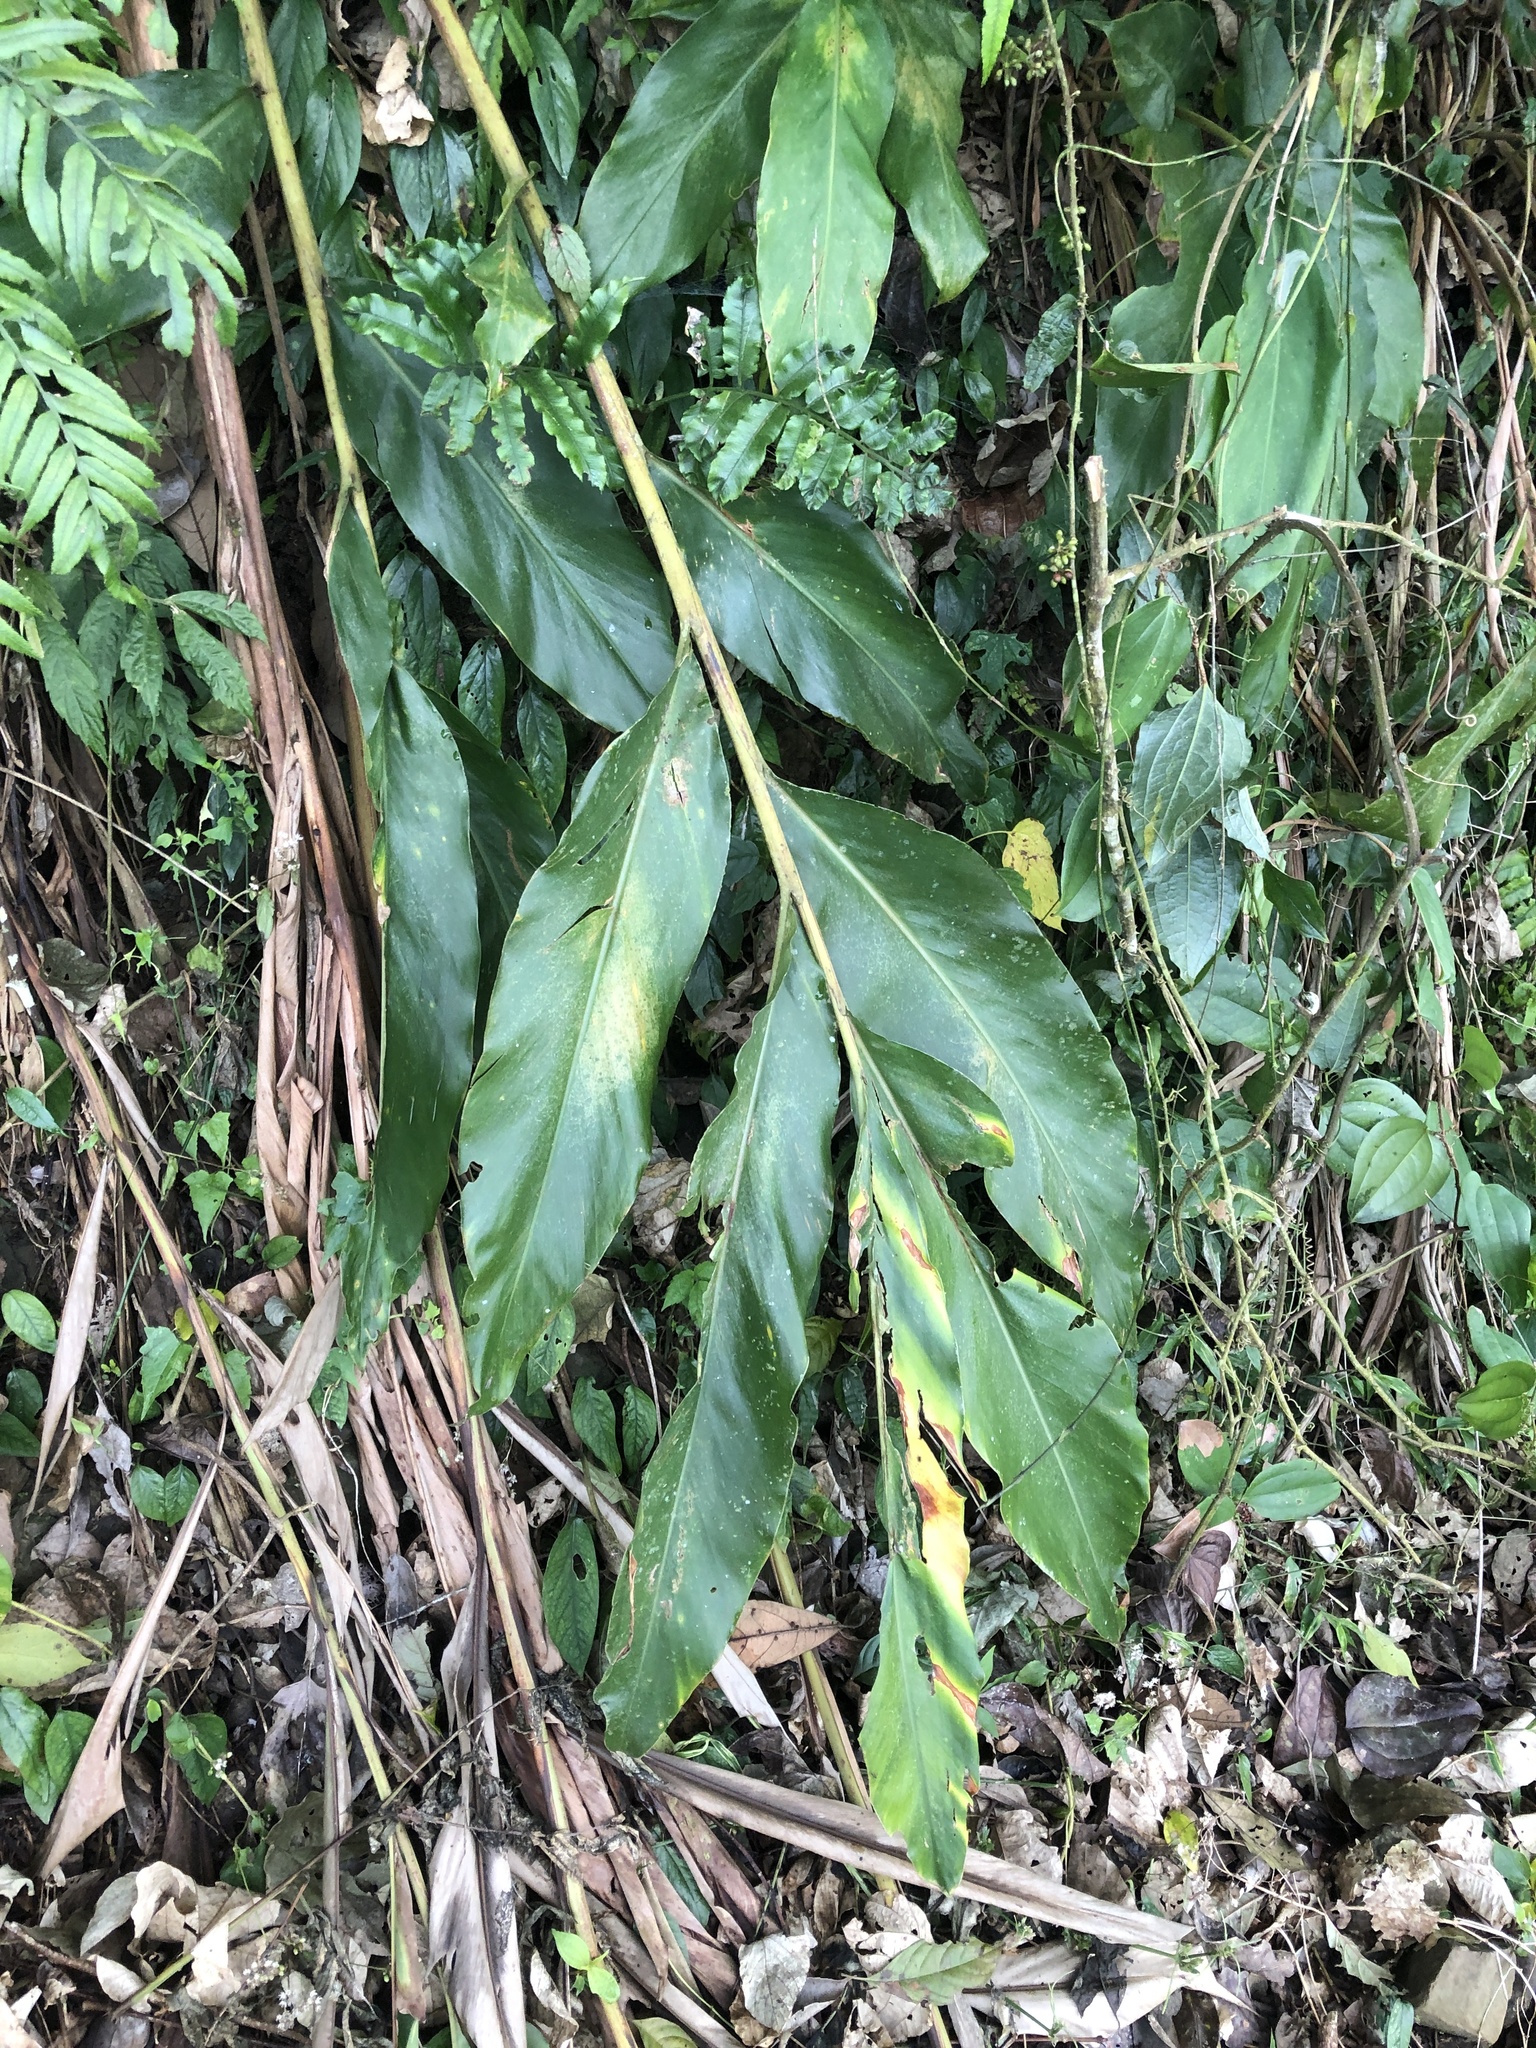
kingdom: Plantae
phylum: Tracheophyta
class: Liliopsida
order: Zingiberales
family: Zingiberaceae
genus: Alpinia
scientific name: Alpinia zerumbet
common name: Shellplant
